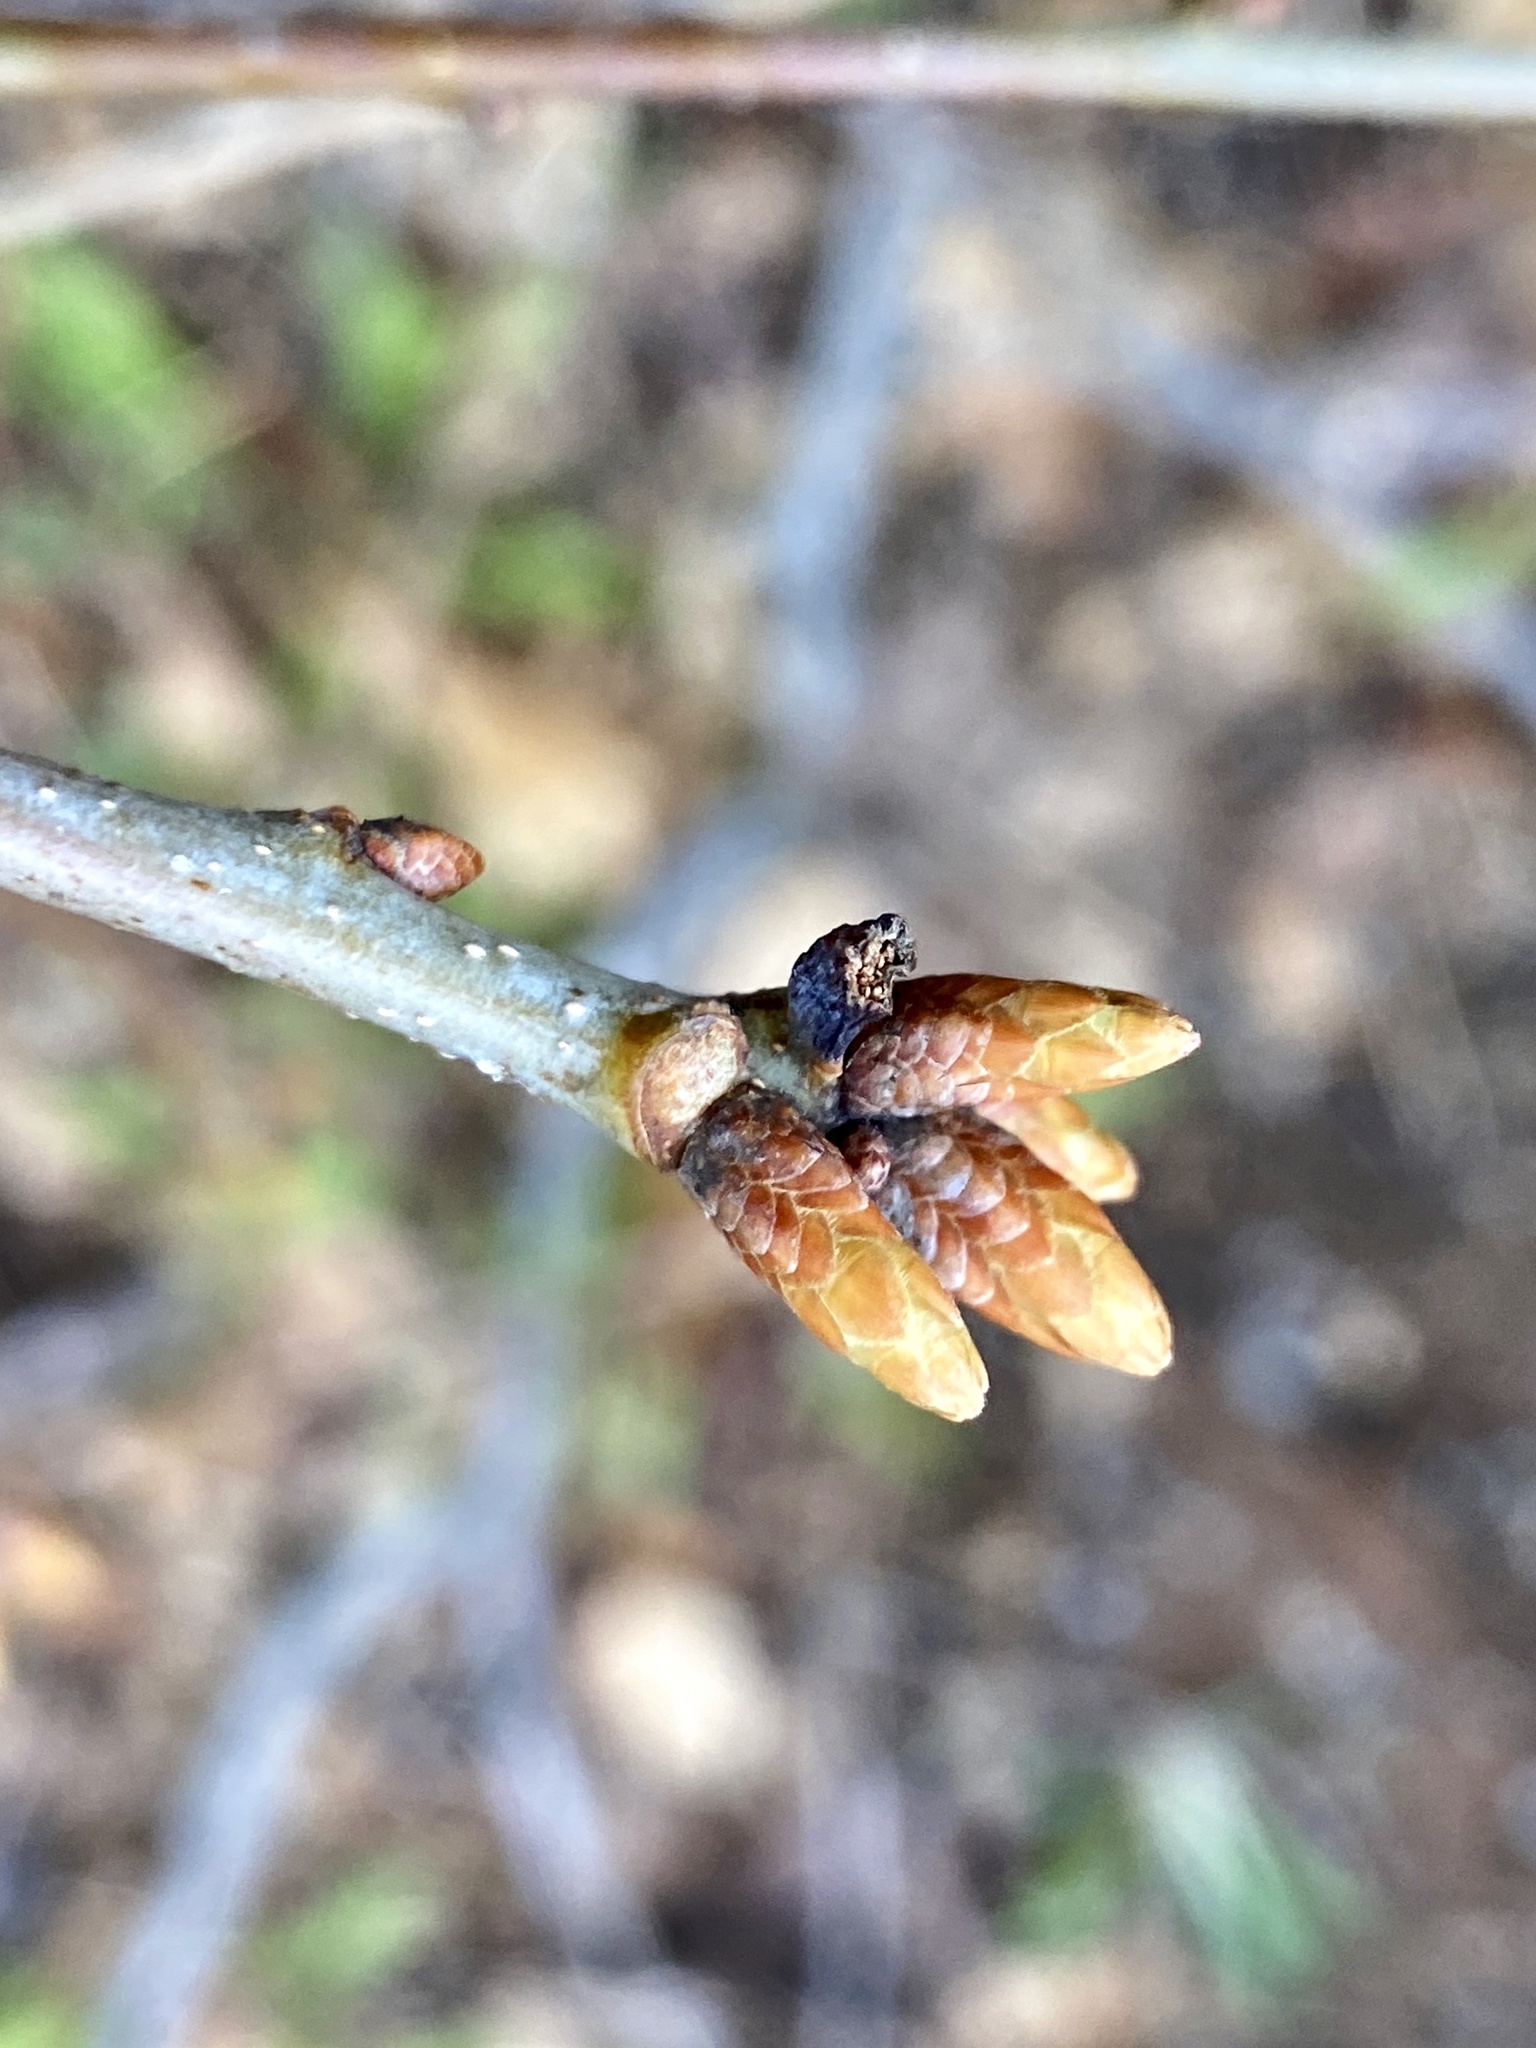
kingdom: Plantae
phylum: Tracheophyta
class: Magnoliopsida
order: Fagales
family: Fagaceae
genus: Quercus
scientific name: Quercus alba
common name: White oak
